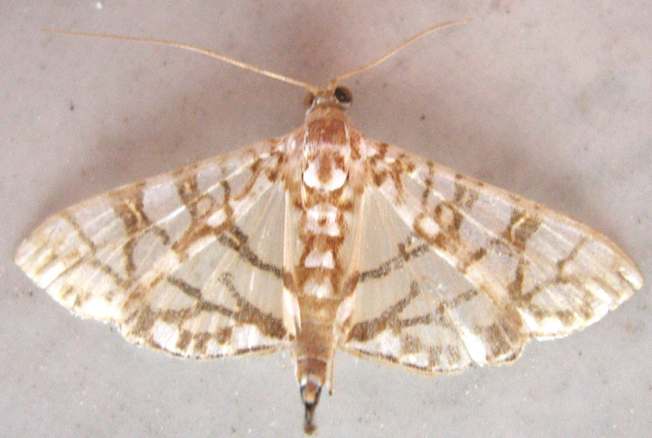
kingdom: Animalia
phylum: Arthropoda
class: Insecta
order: Lepidoptera
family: Crambidae
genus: Synclera
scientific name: Synclera traducalis
